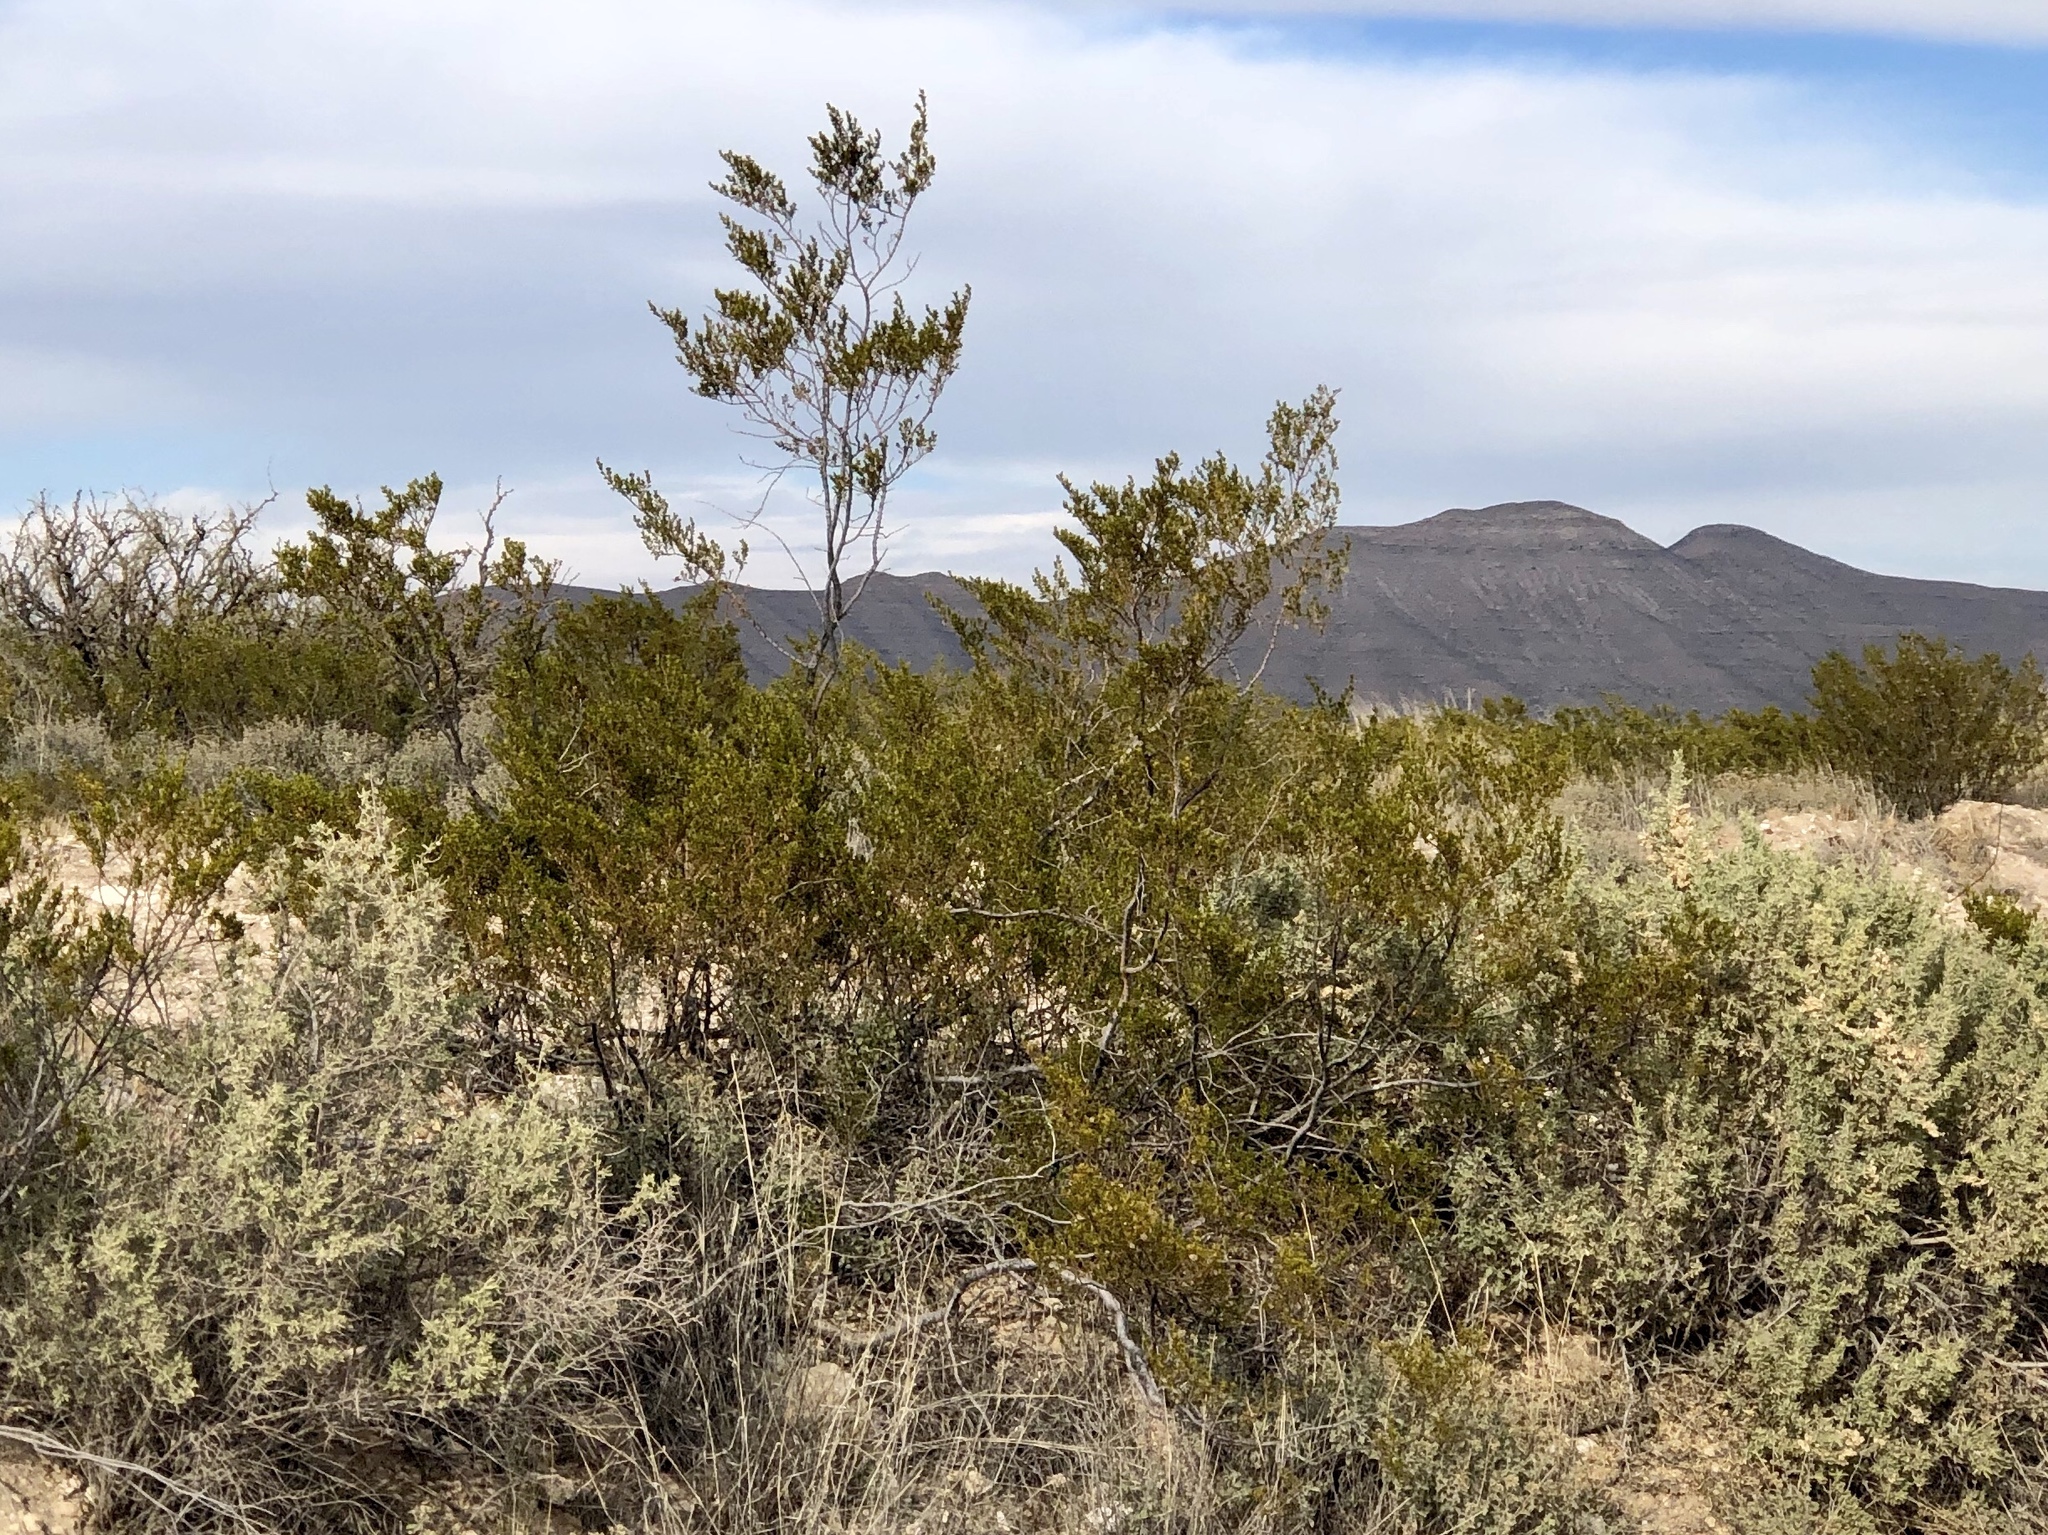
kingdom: Plantae
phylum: Tracheophyta
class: Magnoliopsida
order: Zygophyllales
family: Zygophyllaceae
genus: Larrea
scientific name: Larrea tridentata
